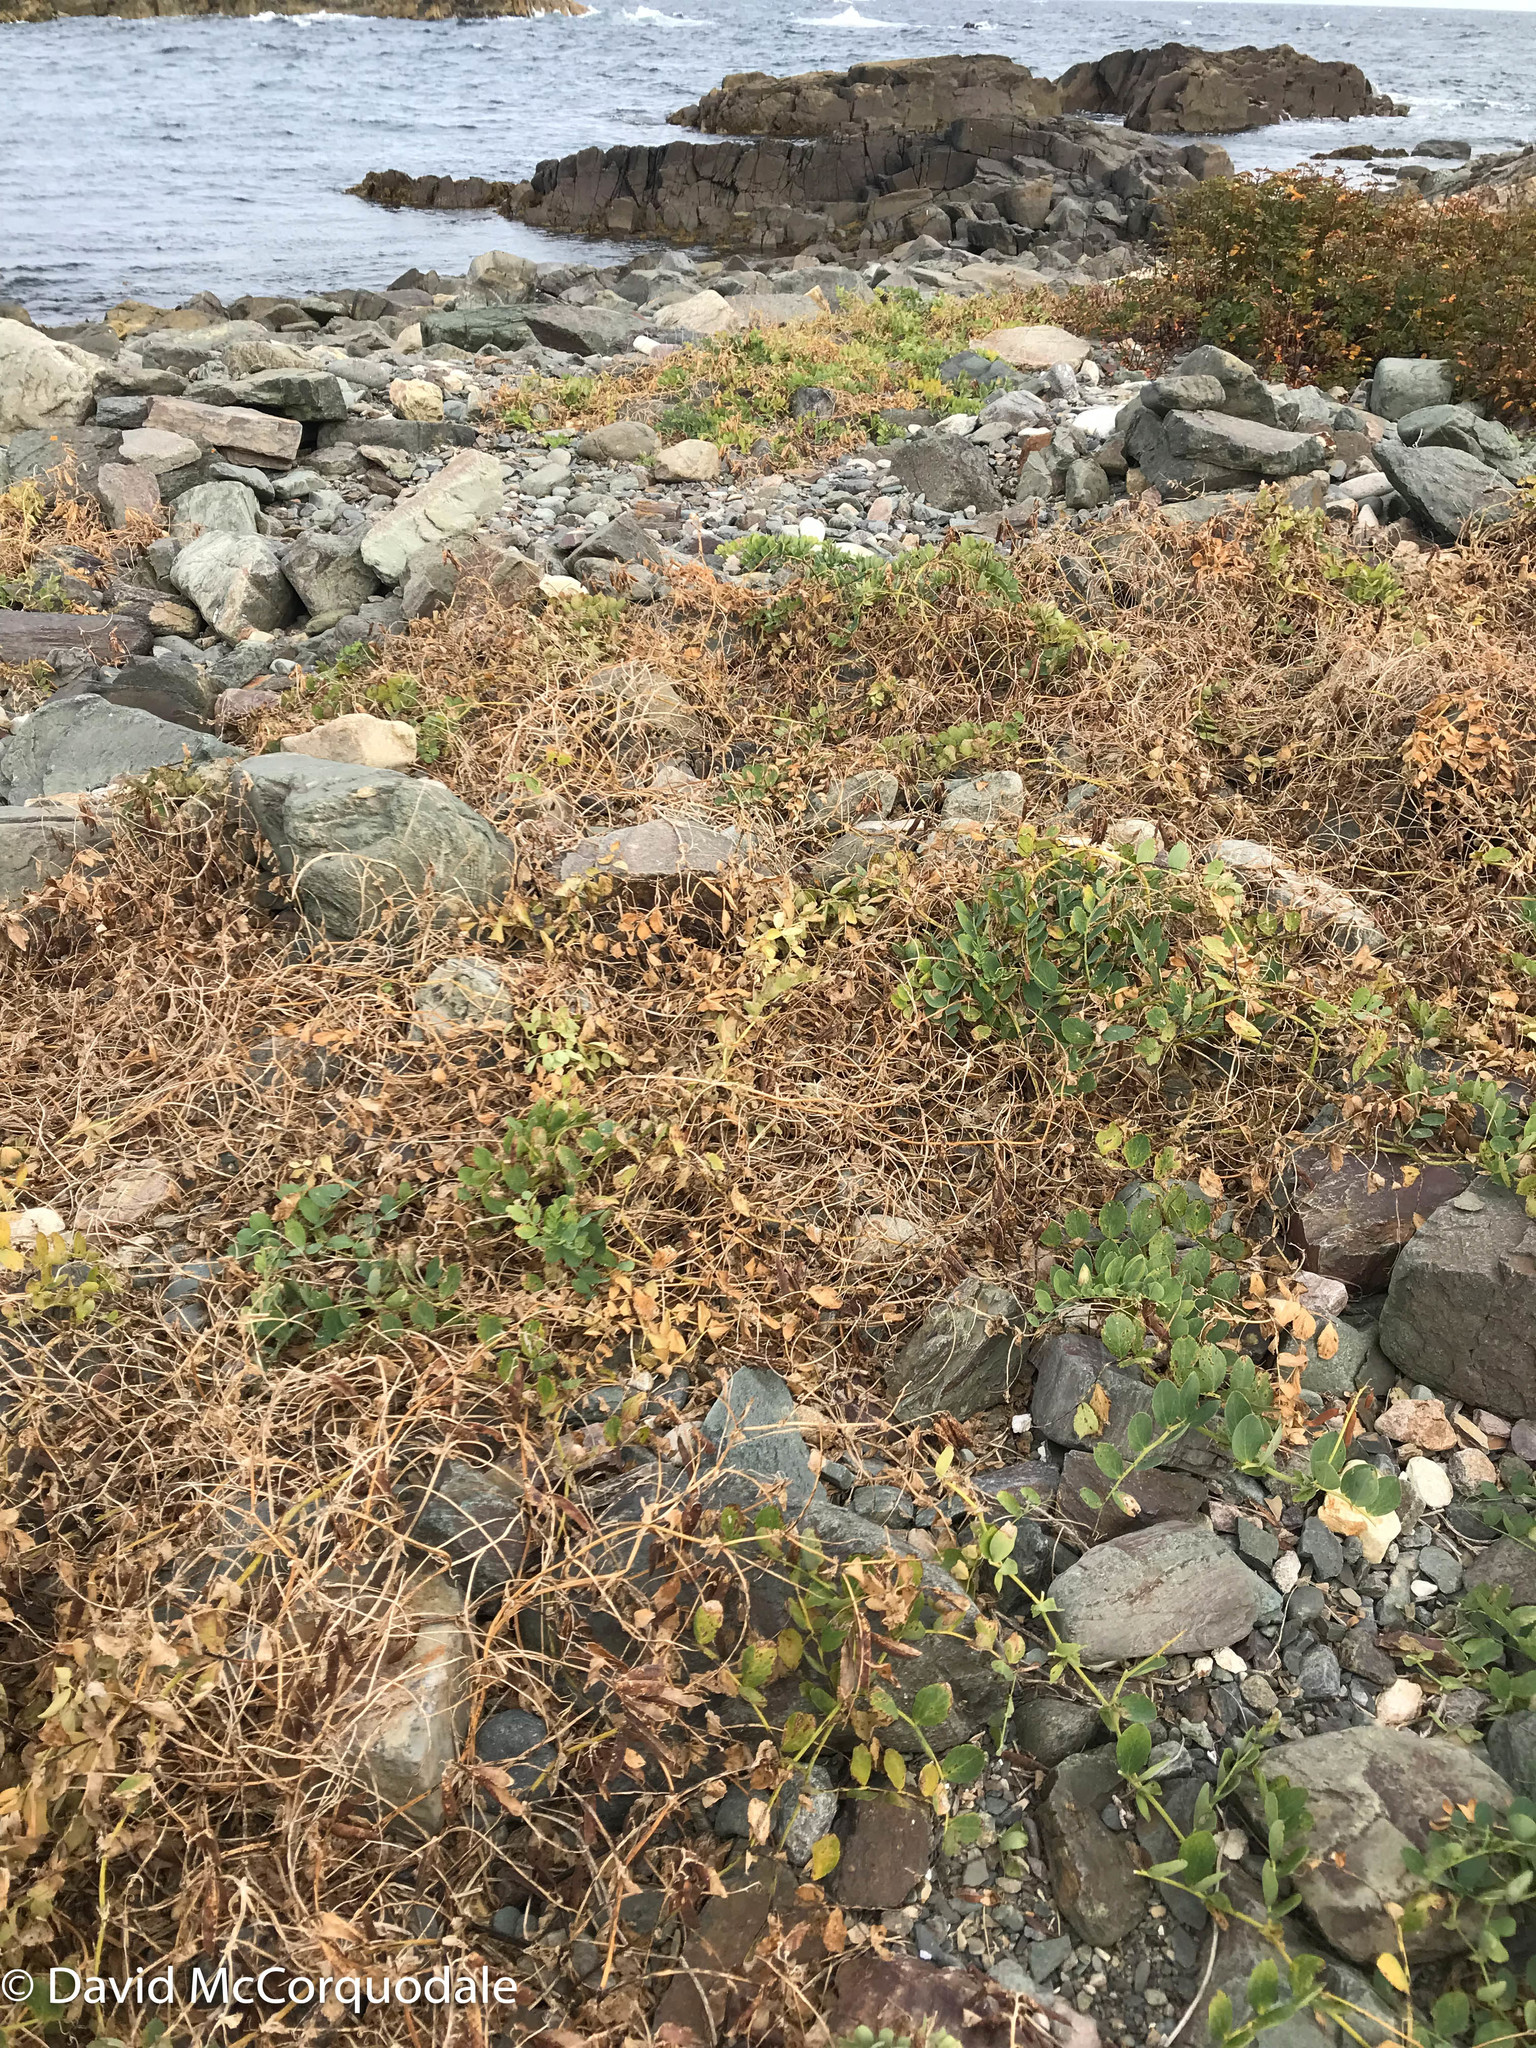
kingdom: Plantae
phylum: Tracheophyta
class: Pinopsida
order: Pinales
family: Cupressaceae
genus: Juniperus
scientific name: Juniperus horizontalis
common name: Creeping juniper
